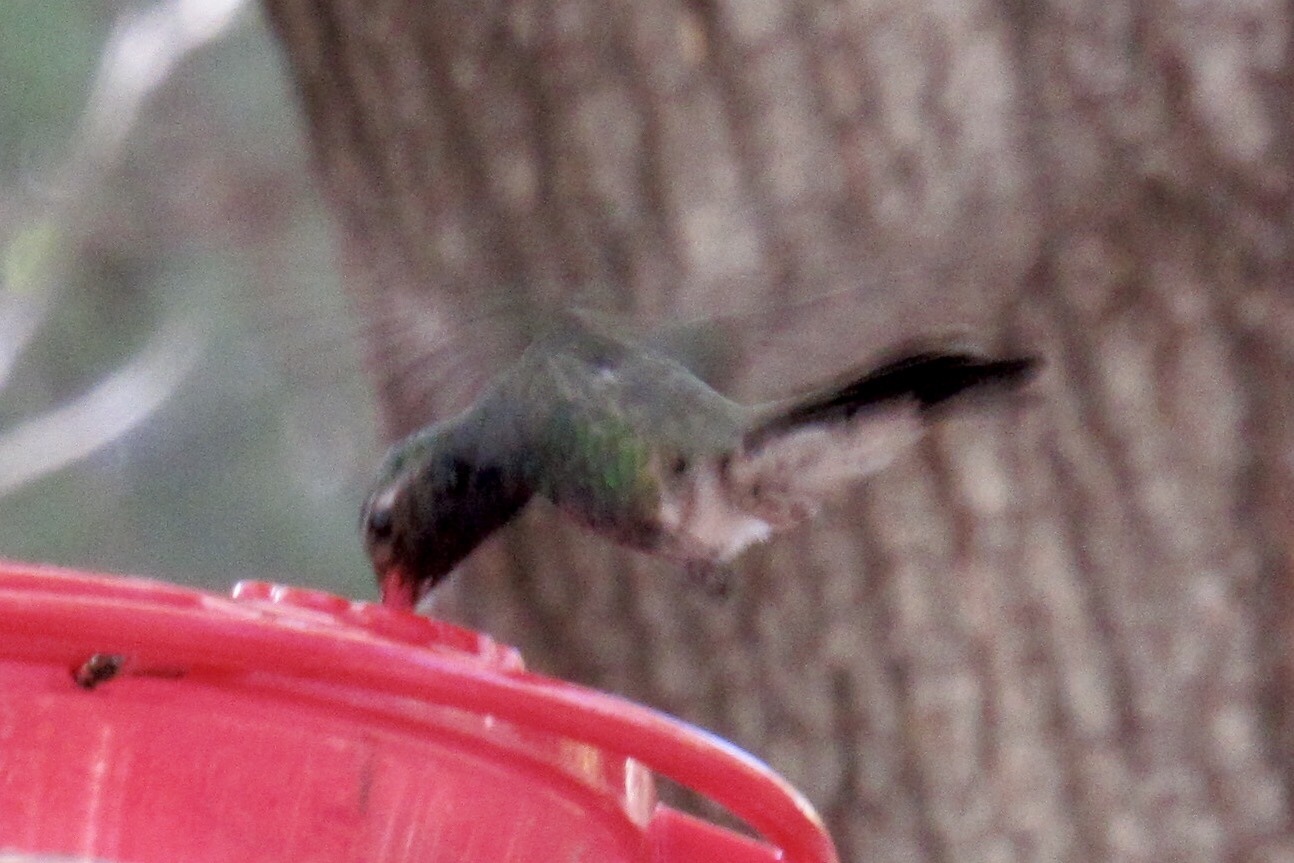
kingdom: Animalia
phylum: Chordata
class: Aves
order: Apodiformes
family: Trochilidae
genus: Cynanthus
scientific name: Cynanthus latirostris
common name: Broad-billed hummingbird
